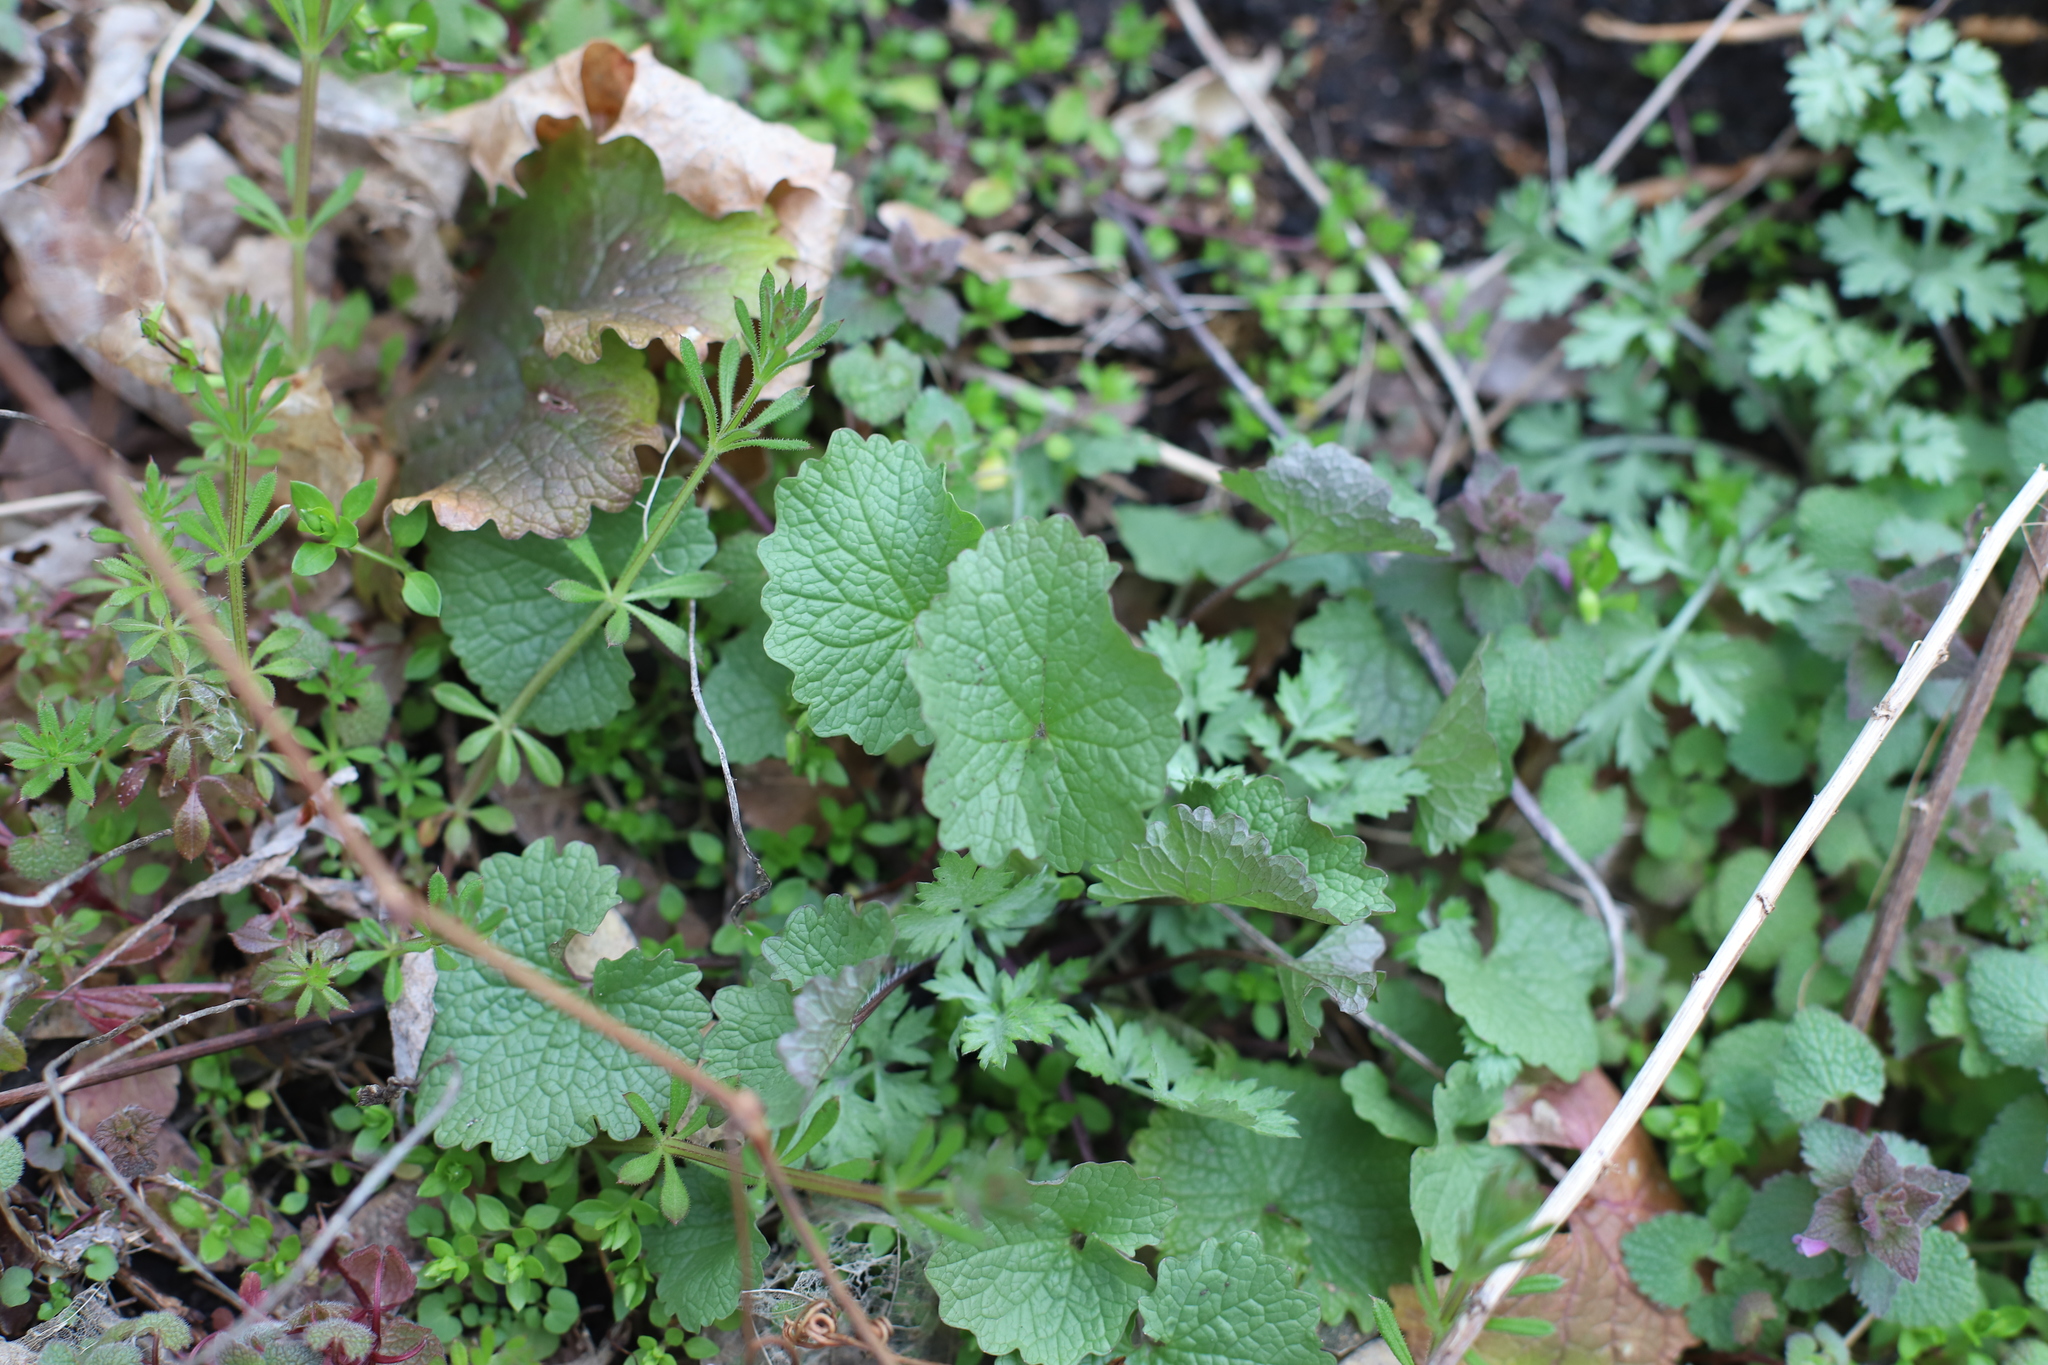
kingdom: Plantae
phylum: Tracheophyta
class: Magnoliopsida
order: Brassicales
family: Brassicaceae
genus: Alliaria
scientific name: Alliaria petiolata
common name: Garlic mustard
